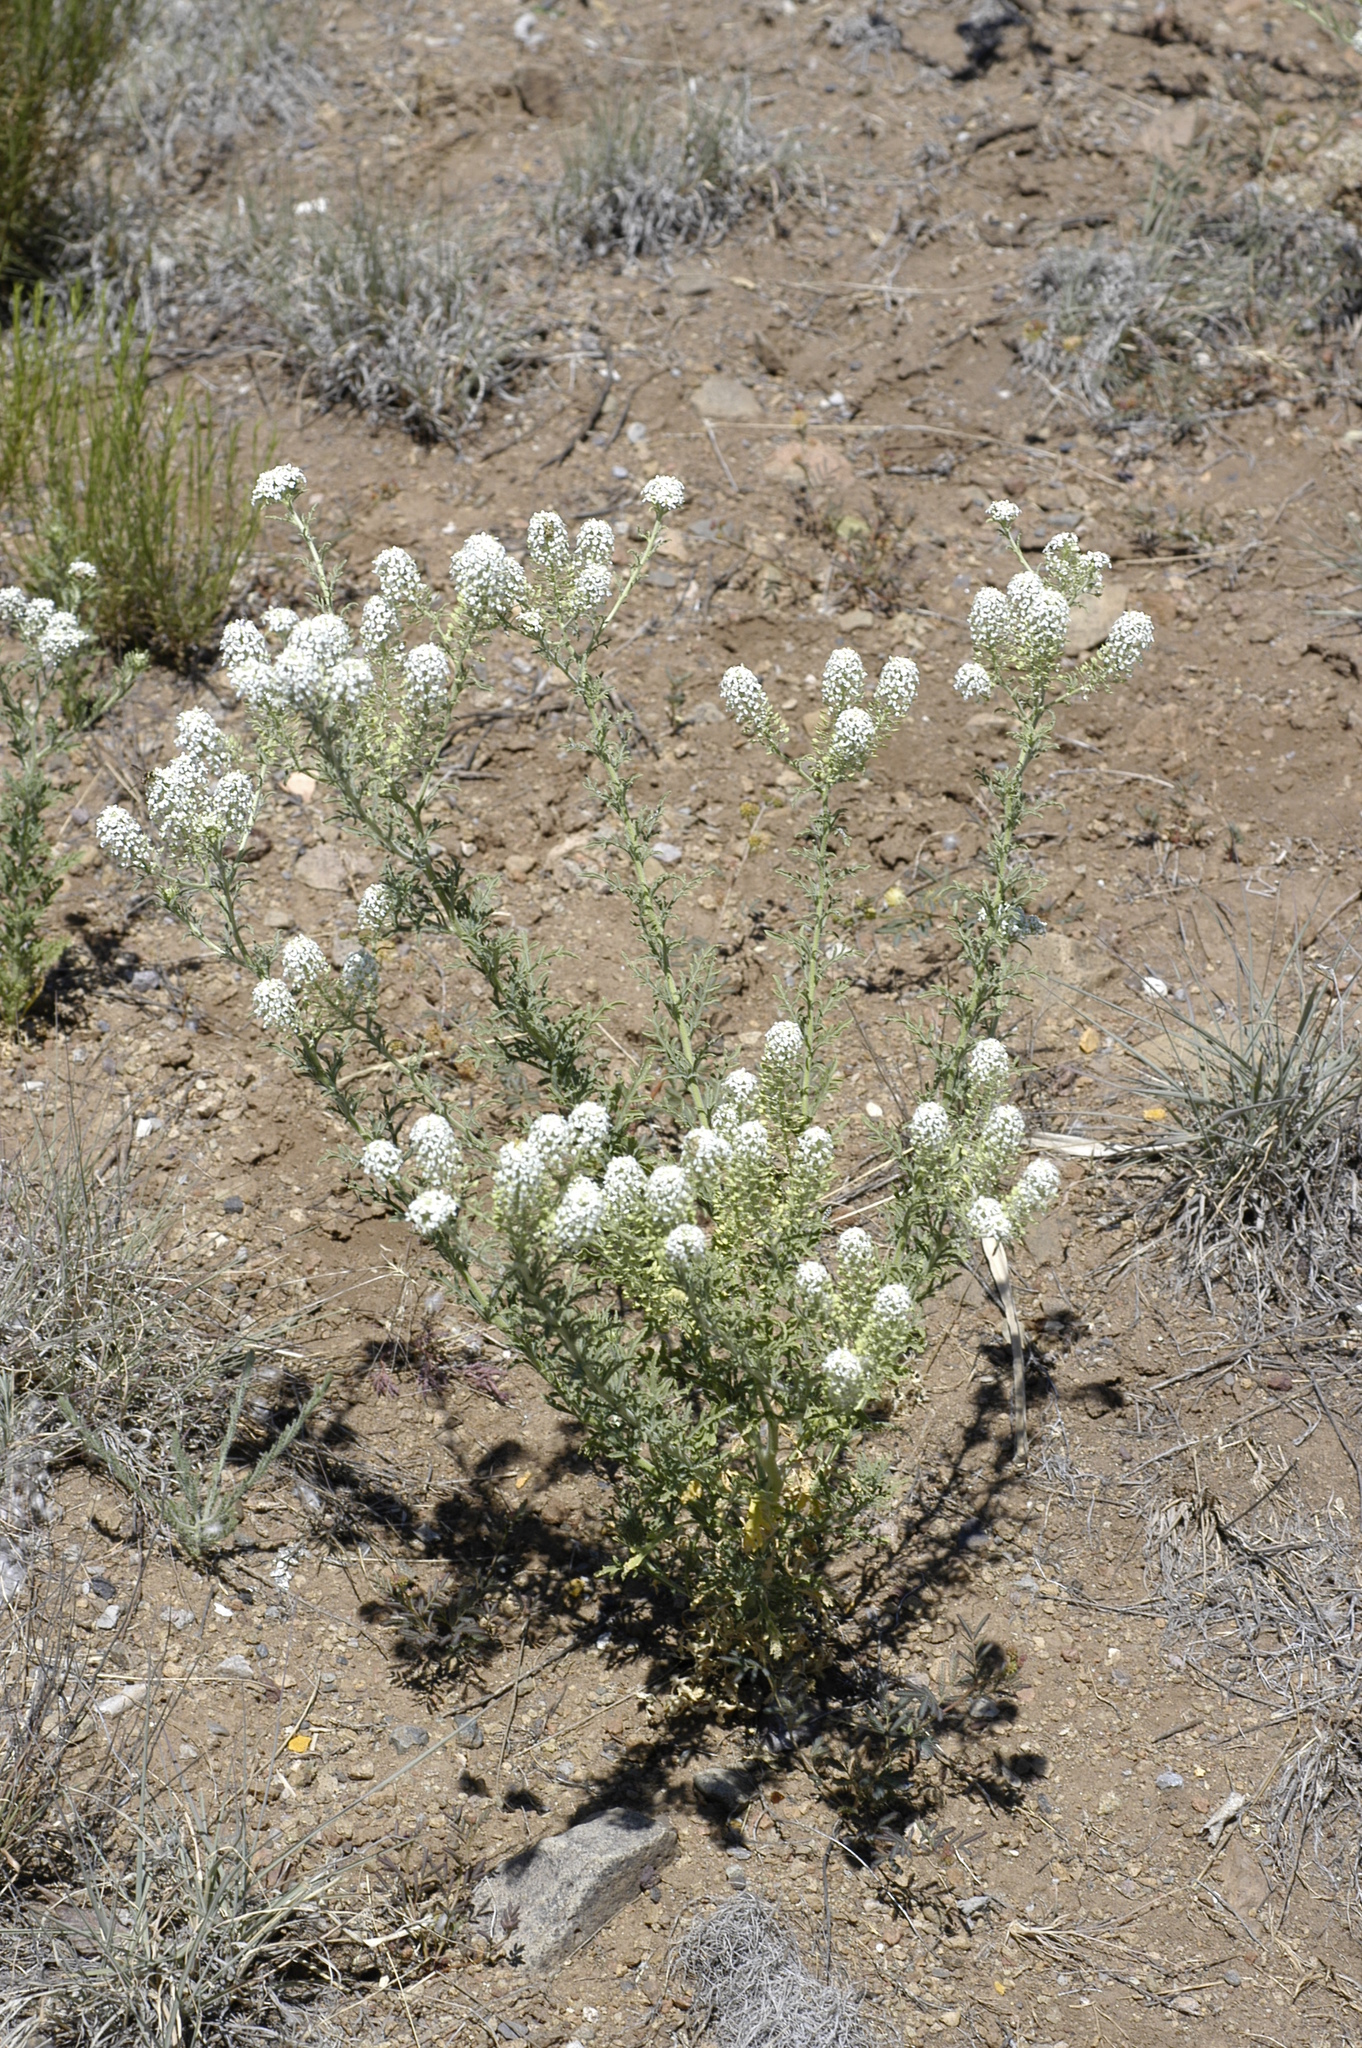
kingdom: Plantae
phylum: Tracheophyta
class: Magnoliopsida
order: Brassicales
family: Brassicaceae
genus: Lepidium
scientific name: Lepidium thurberi
